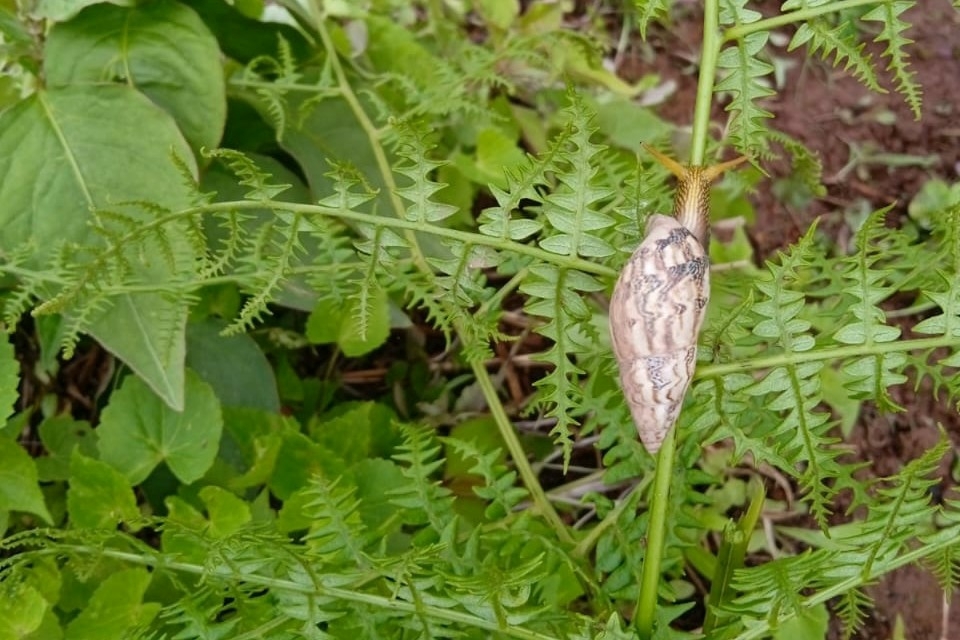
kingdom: Animalia
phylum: Mollusca
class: Gastropoda
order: Stylommatophora
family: Bulimulidae
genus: Drymaeus
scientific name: Drymaeus flexuosus
